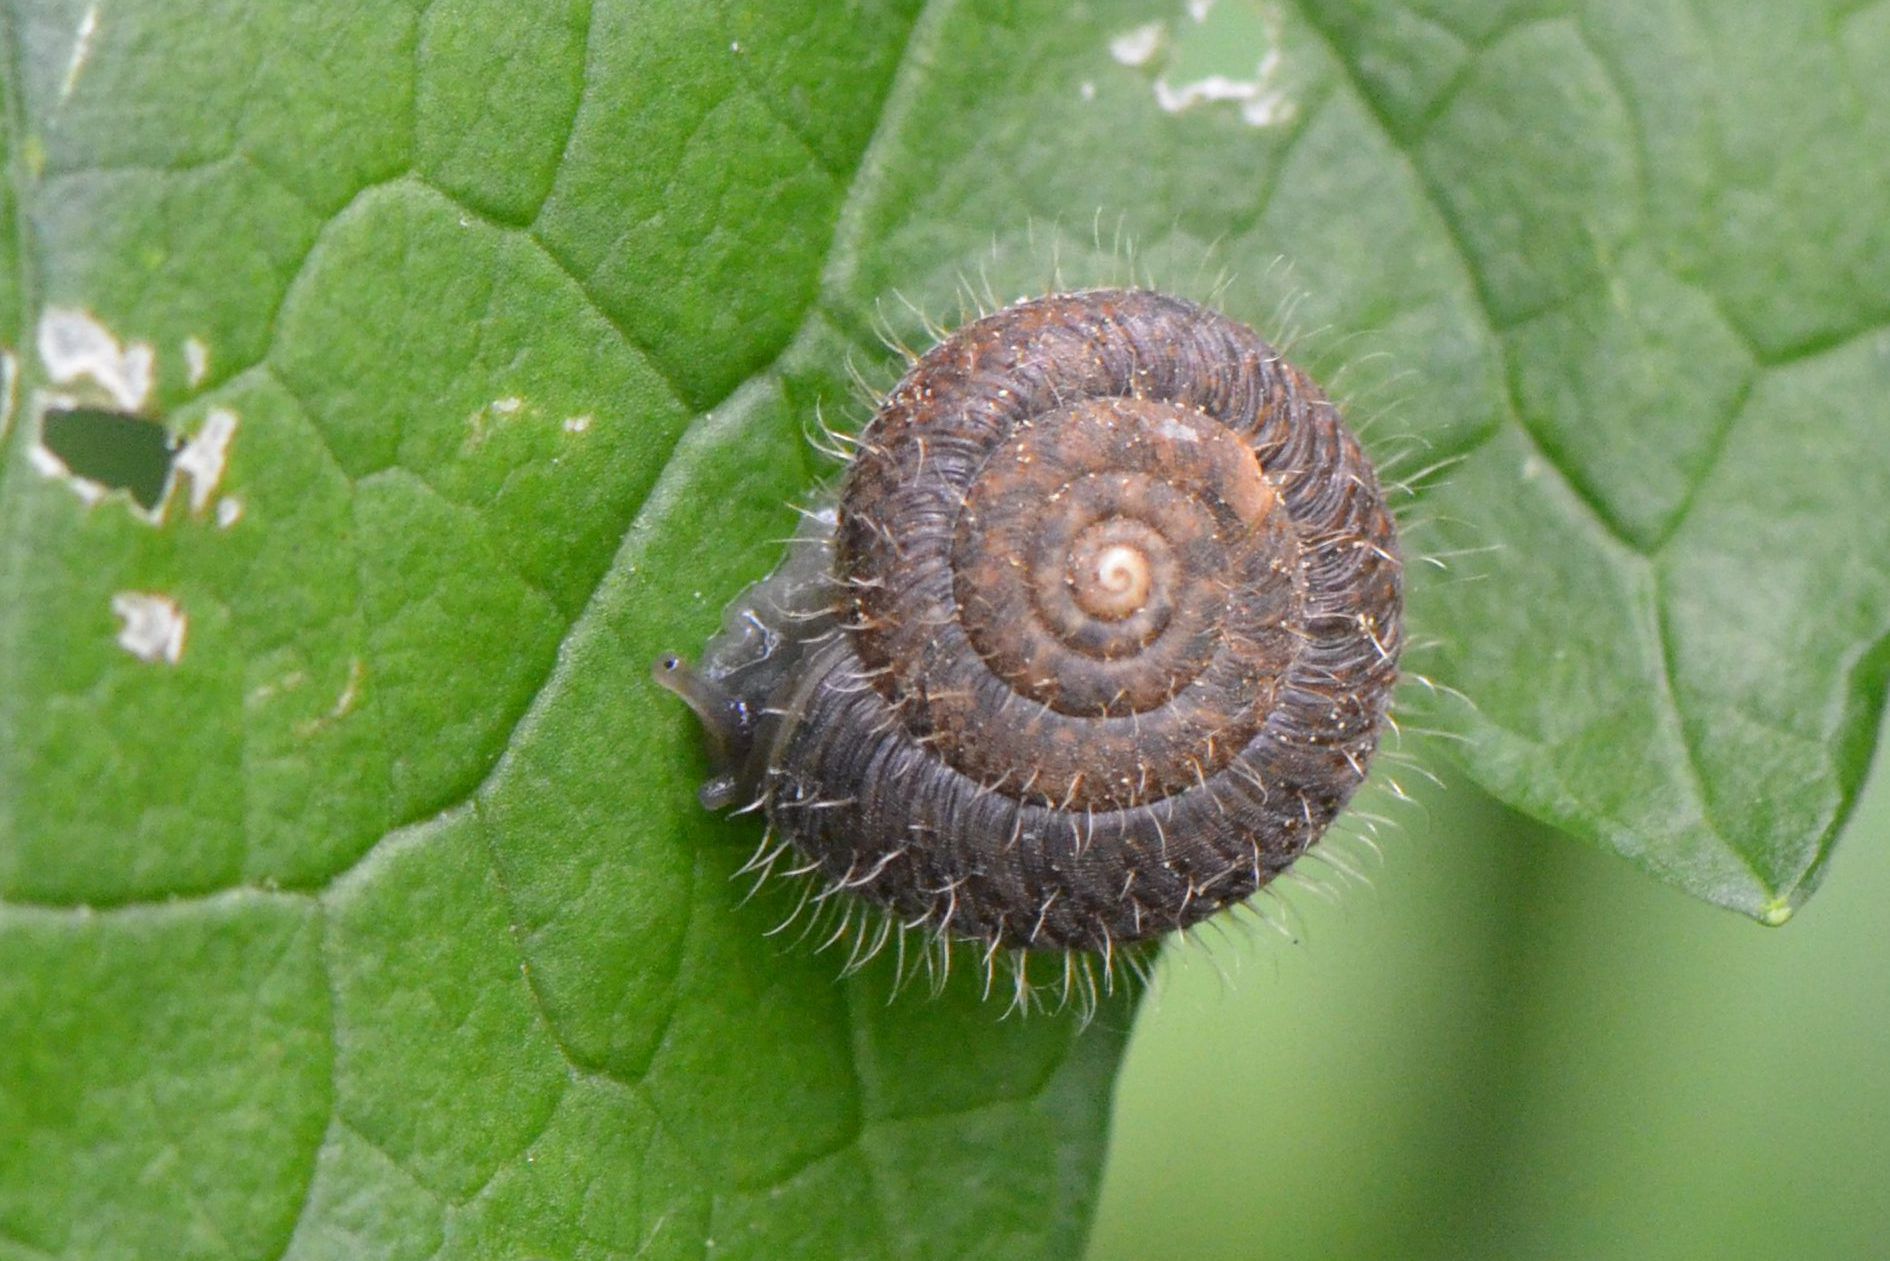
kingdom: Animalia
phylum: Mollusca
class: Gastropoda
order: Stylommatophora
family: Hygromiidae
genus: Trochulus
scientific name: Trochulus villosus
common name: Villous hairysnail
